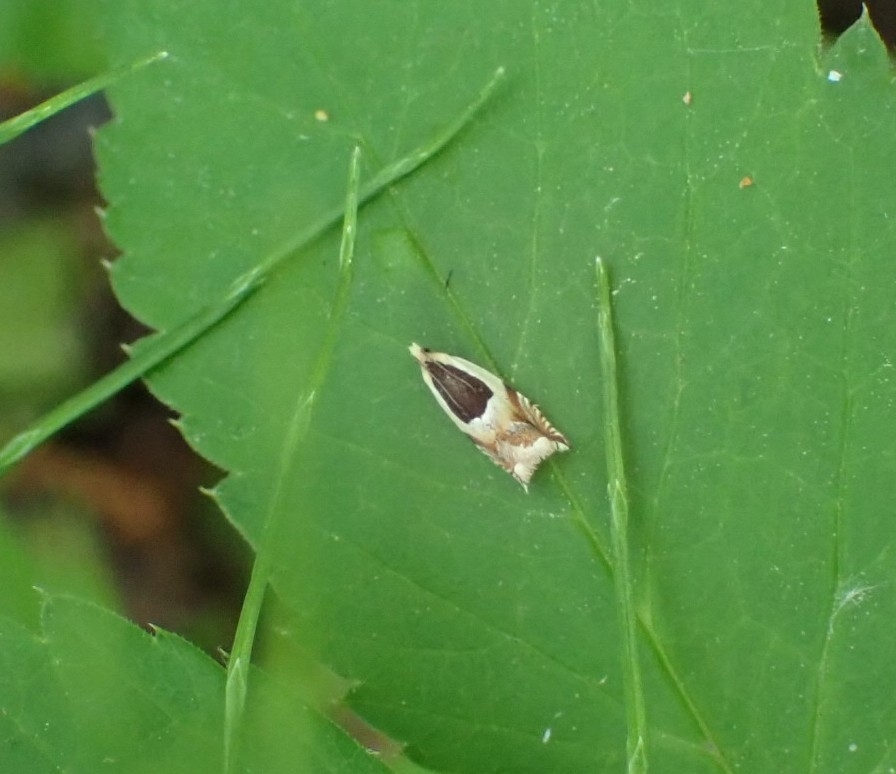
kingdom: Animalia
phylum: Arthropoda
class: Insecta
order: Lepidoptera
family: Tortricidae
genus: Ancylis
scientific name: Ancylis badiana
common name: Common roller
